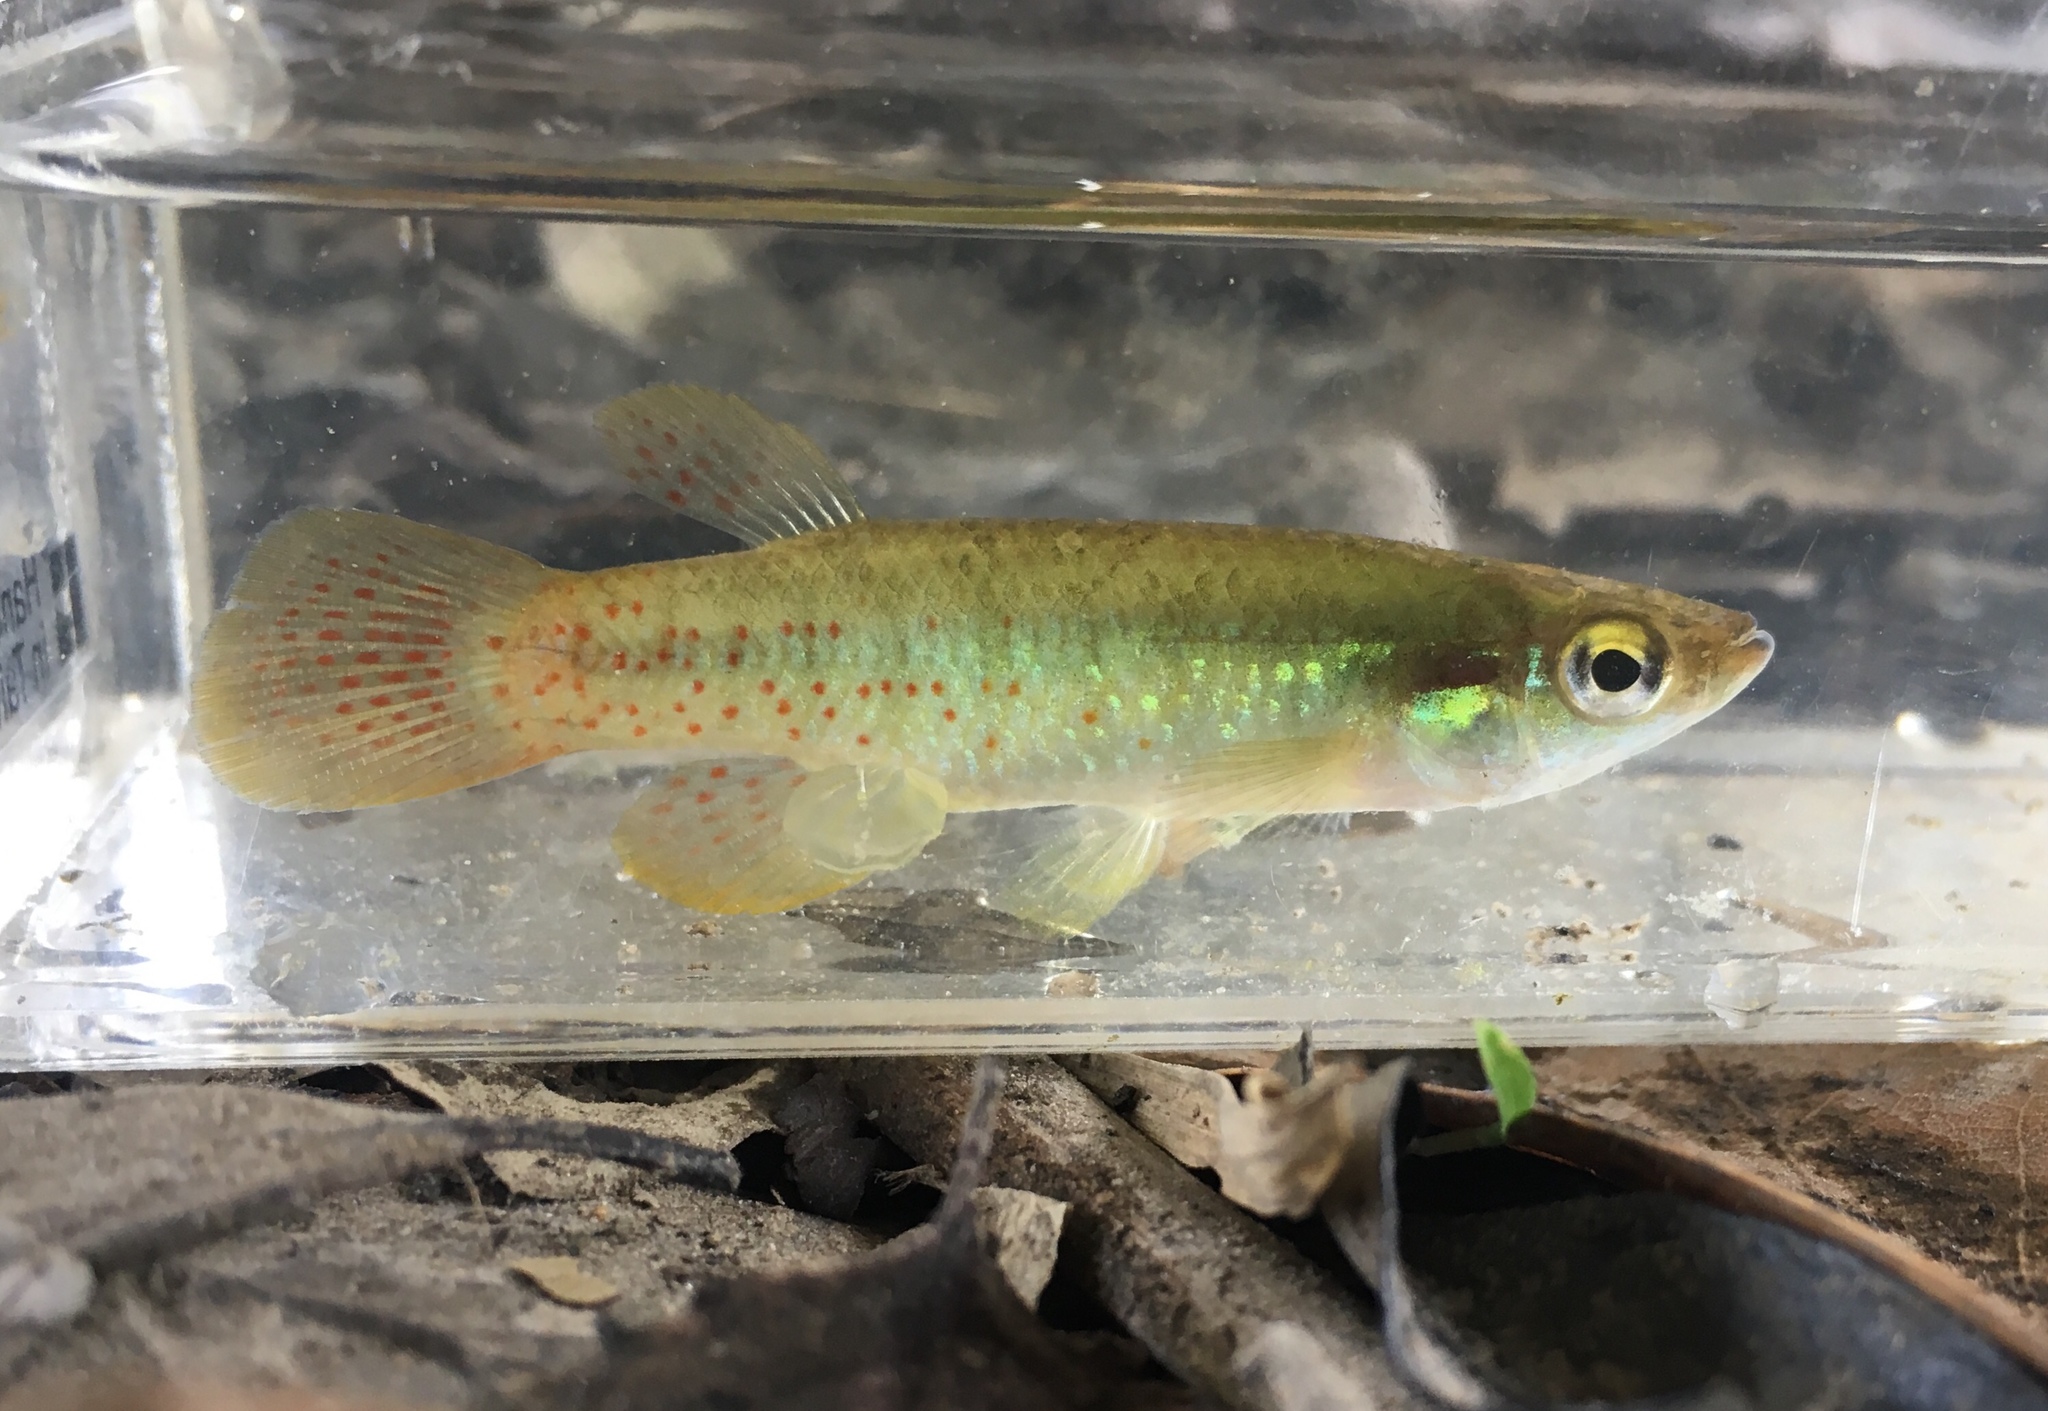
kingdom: Animalia
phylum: Chordata
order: Cyprinodontiformes
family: Fundulidae
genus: Fundulus
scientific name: Fundulus chrysotus
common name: Golden topminnow
